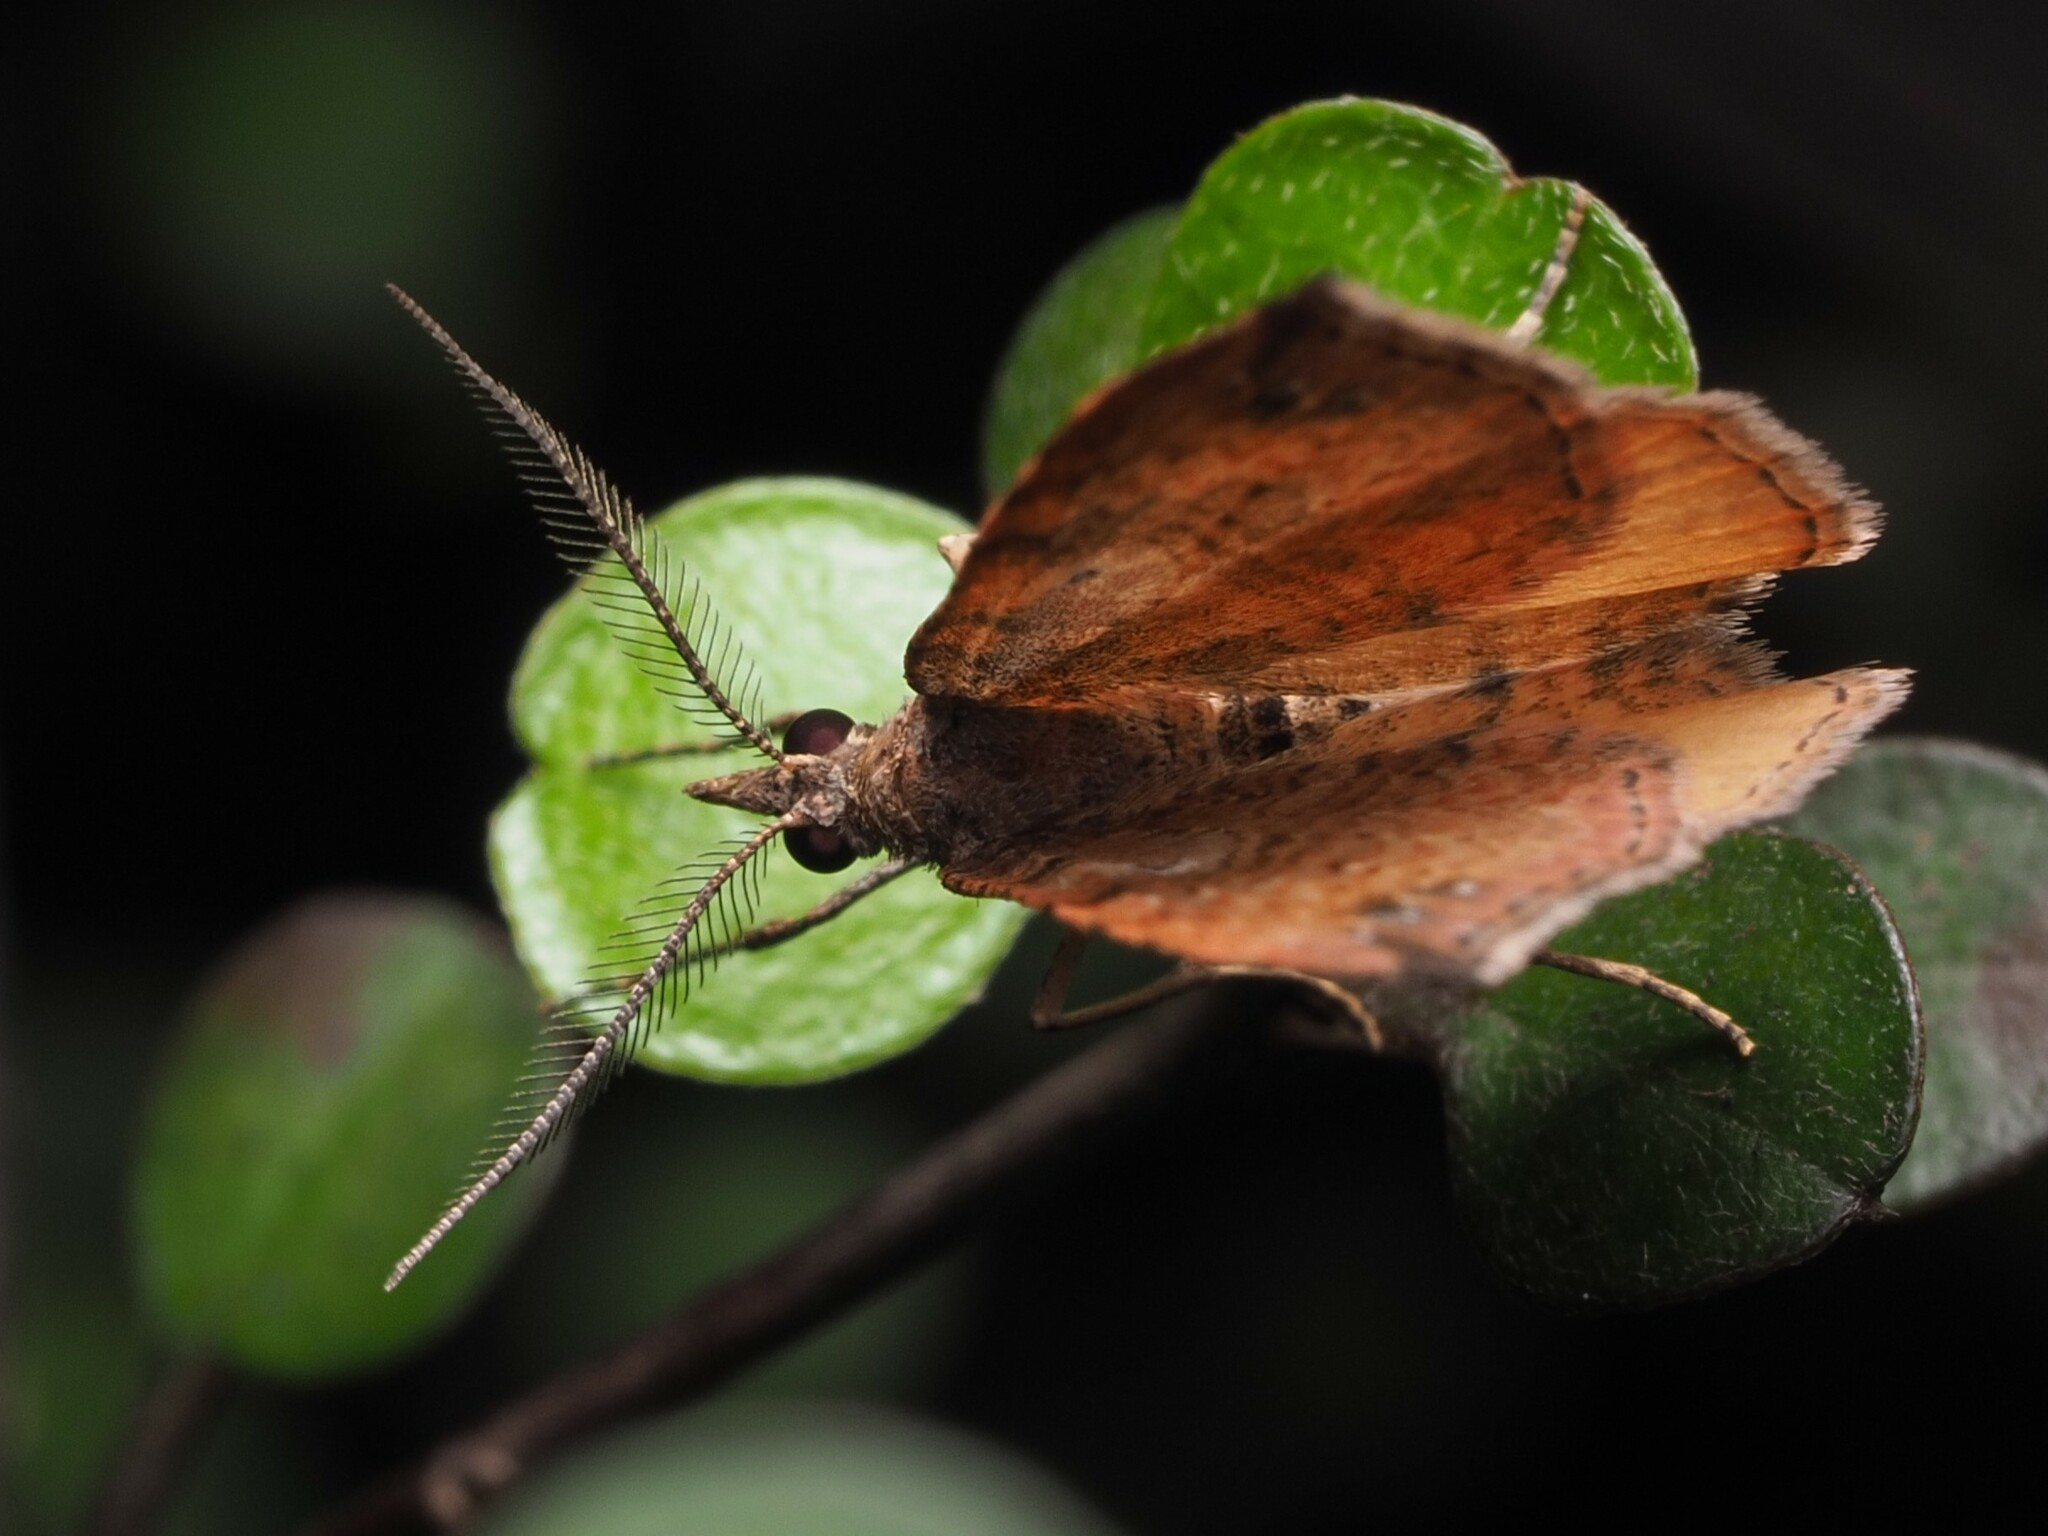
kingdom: Animalia
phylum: Arthropoda
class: Insecta
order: Lepidoptera
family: Geometridae
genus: Homodotis
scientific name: Homodotis megaspilata
